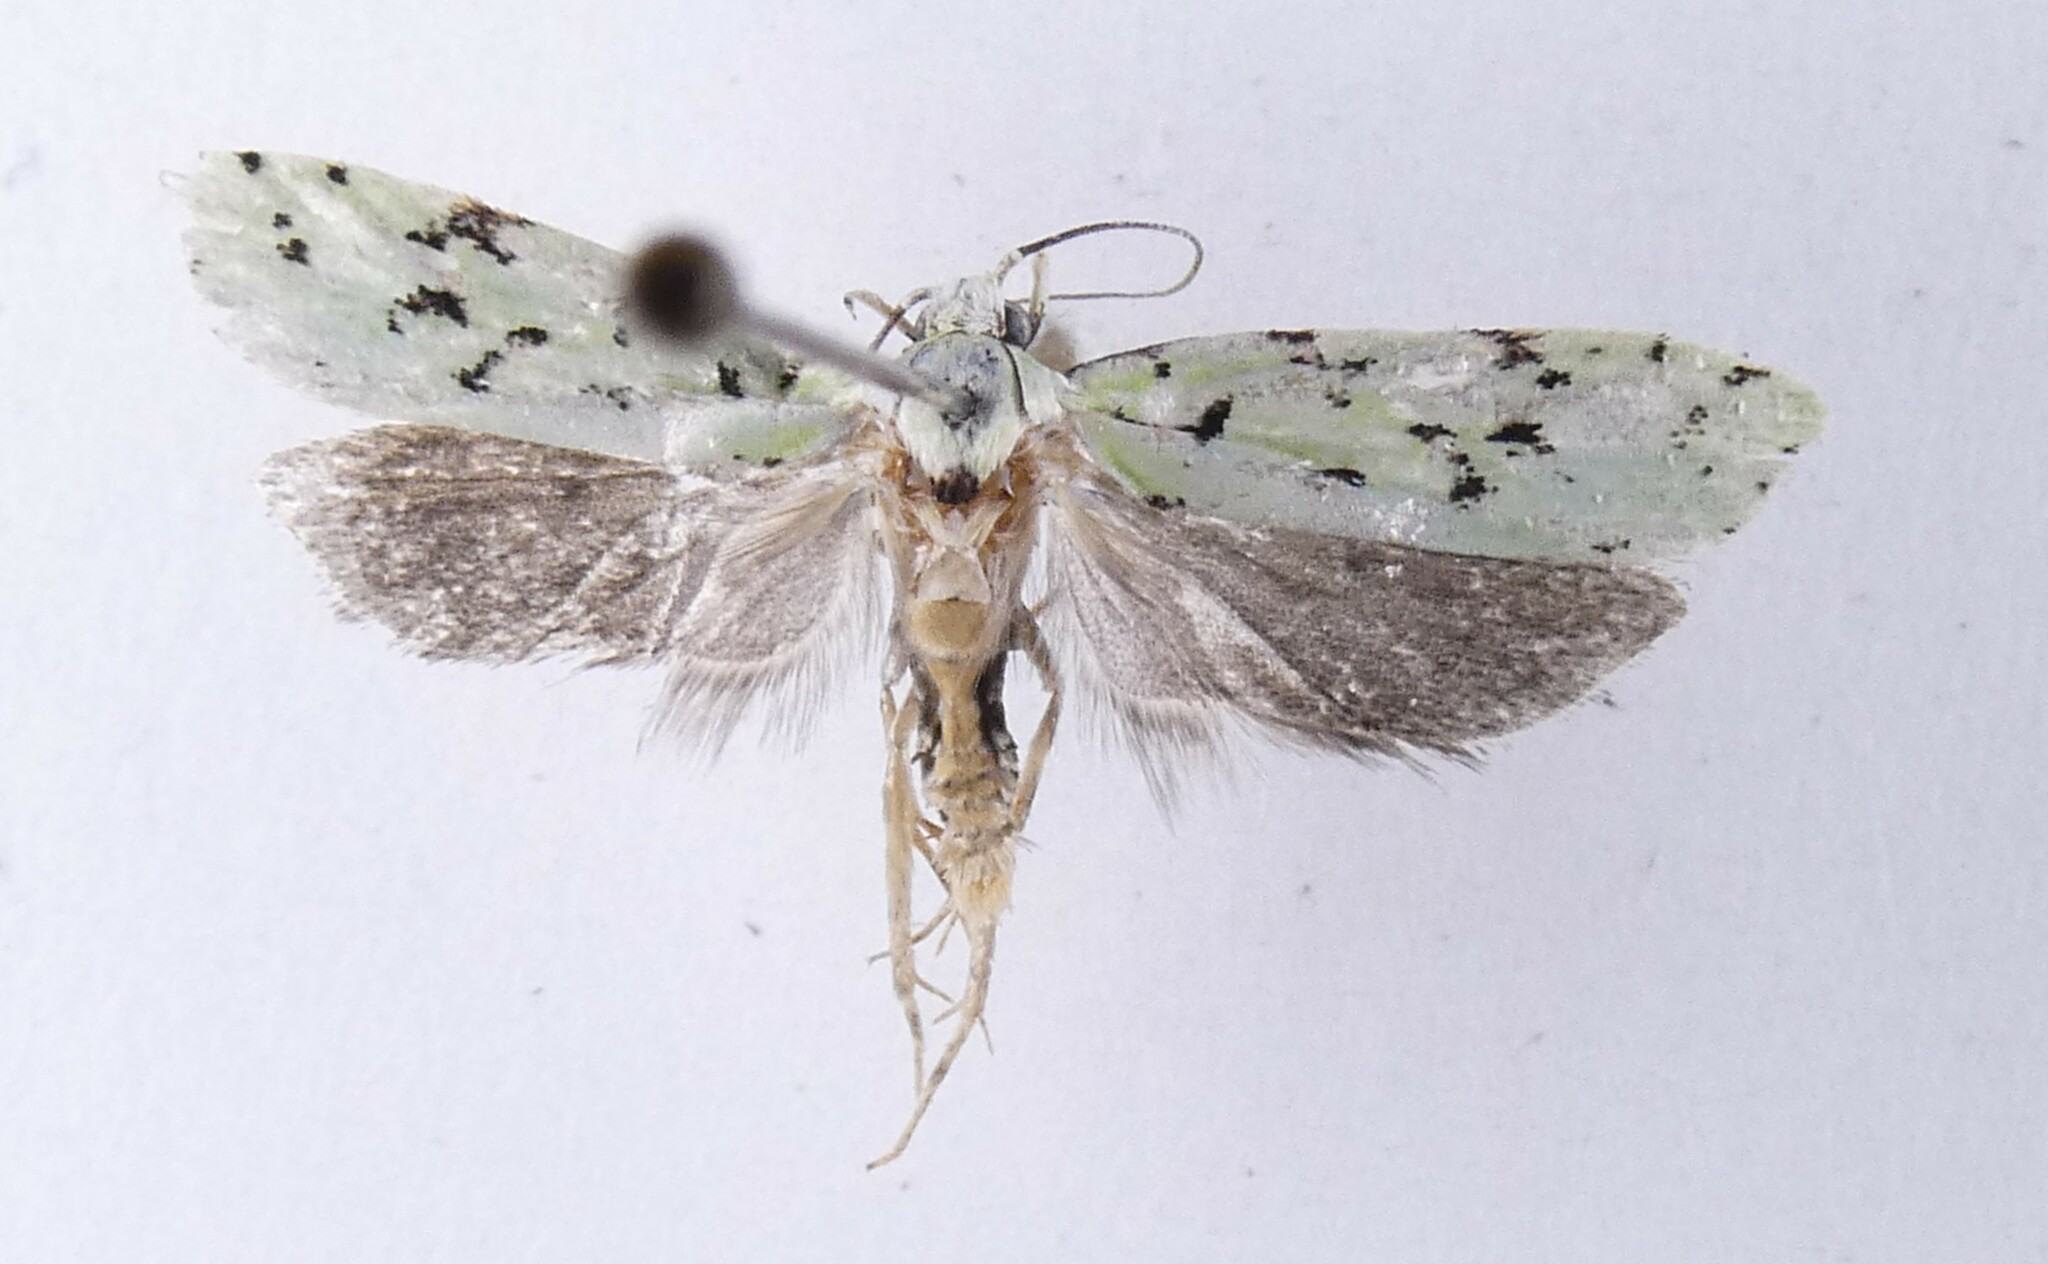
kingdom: Animalia
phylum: Arthropoda
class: Insecta
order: Lepidoptera
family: Oecophoridae
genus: Izatha
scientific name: Izatha huttoni
